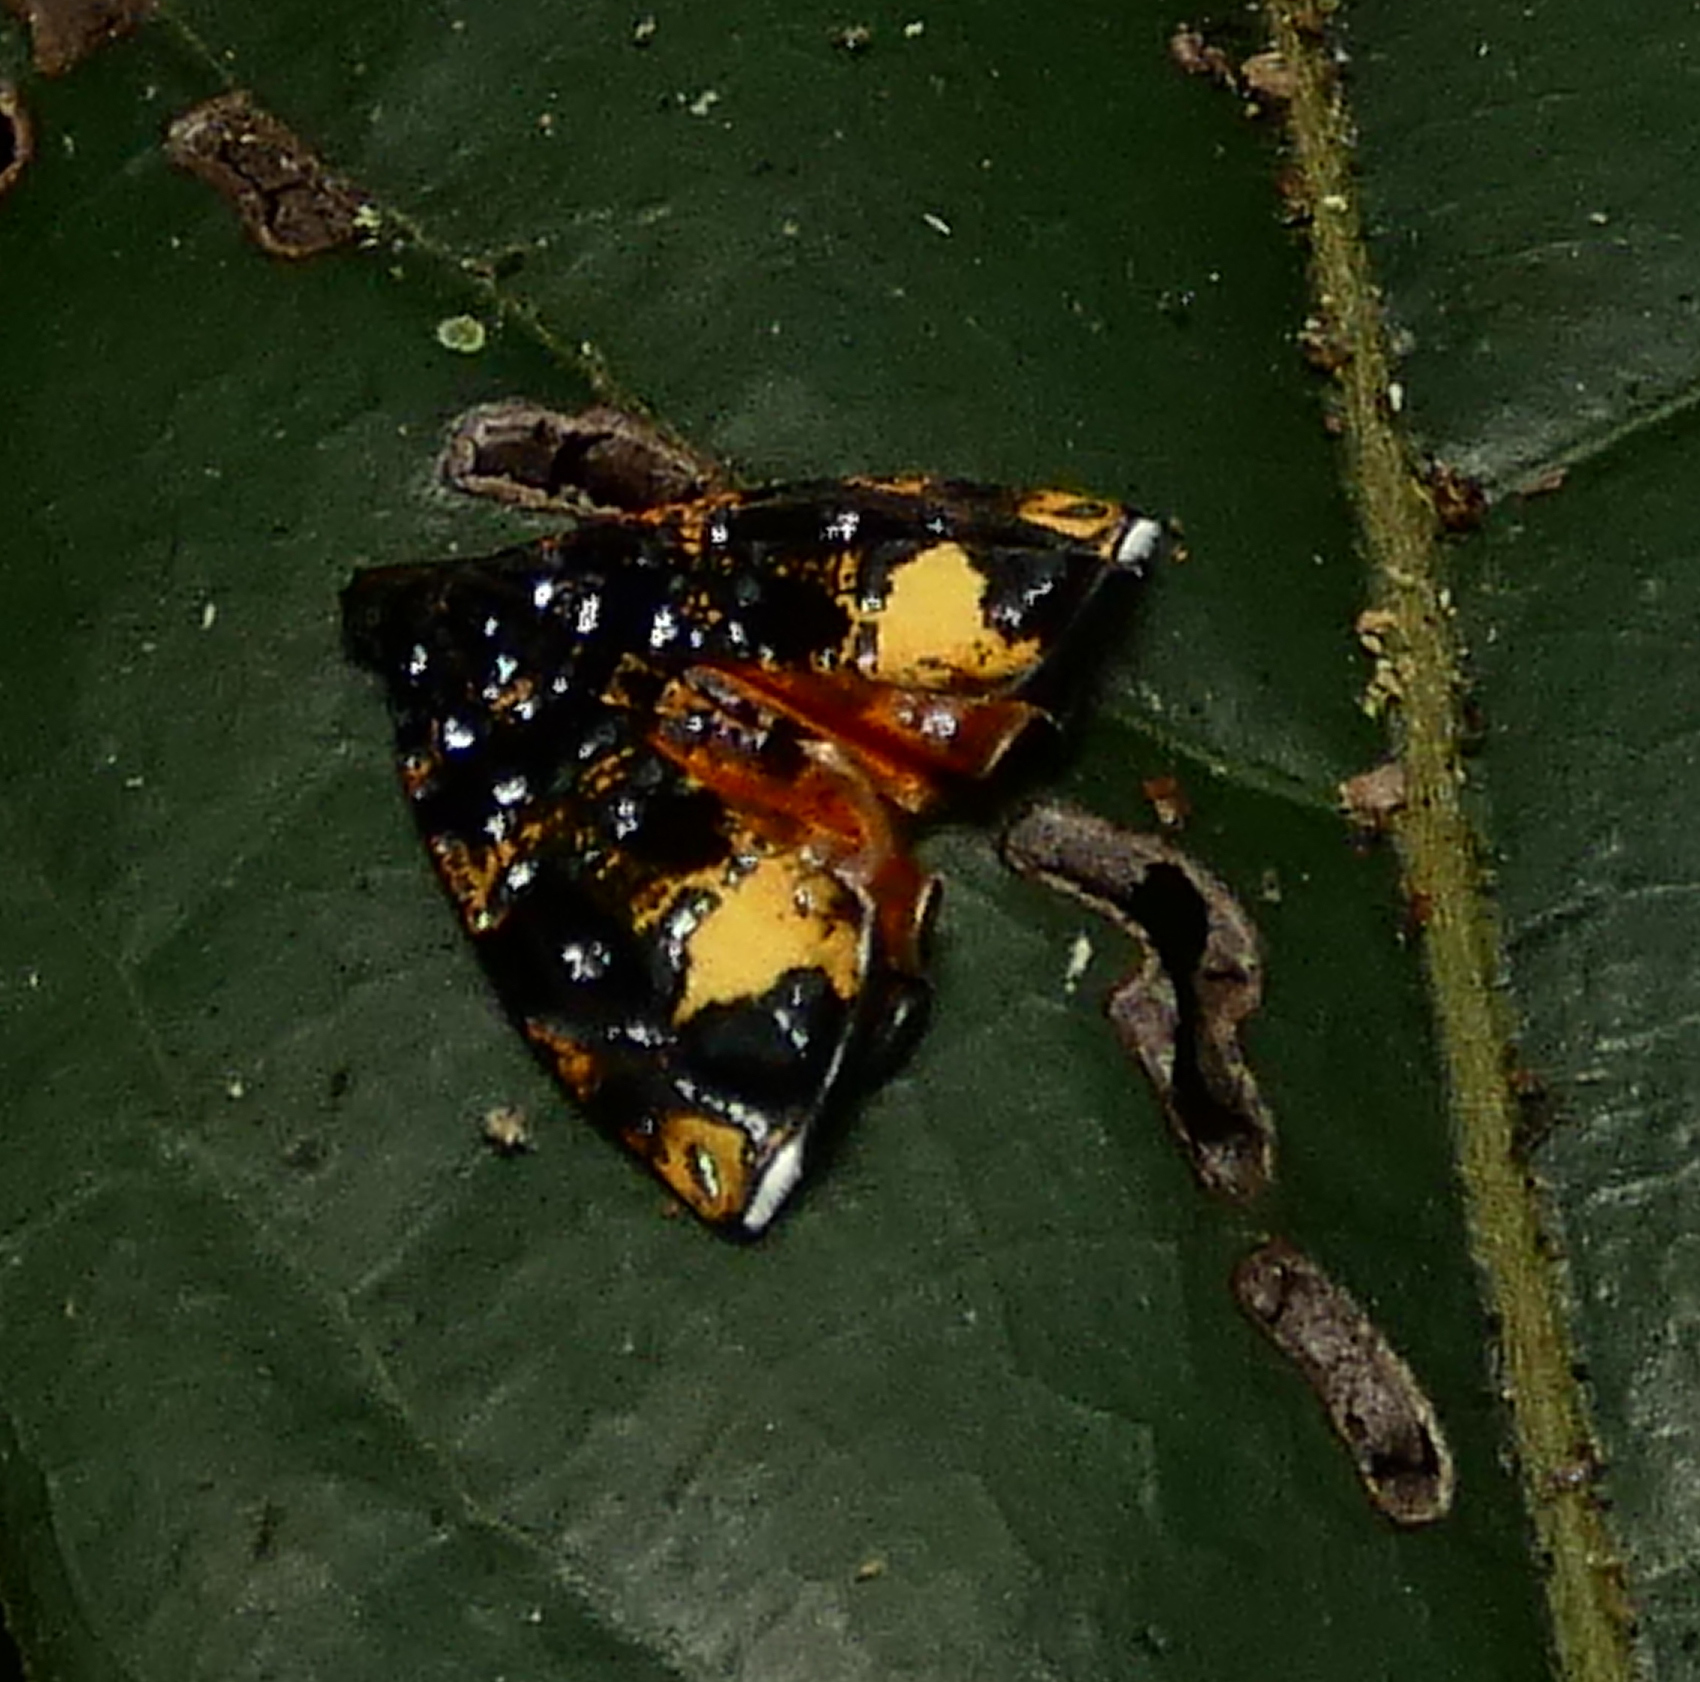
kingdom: Animalia
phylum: Arthropoda
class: Insecta
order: Lepidoptera
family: Tortricidae
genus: Mictopsichia
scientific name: Mictopsichia hubneriana
